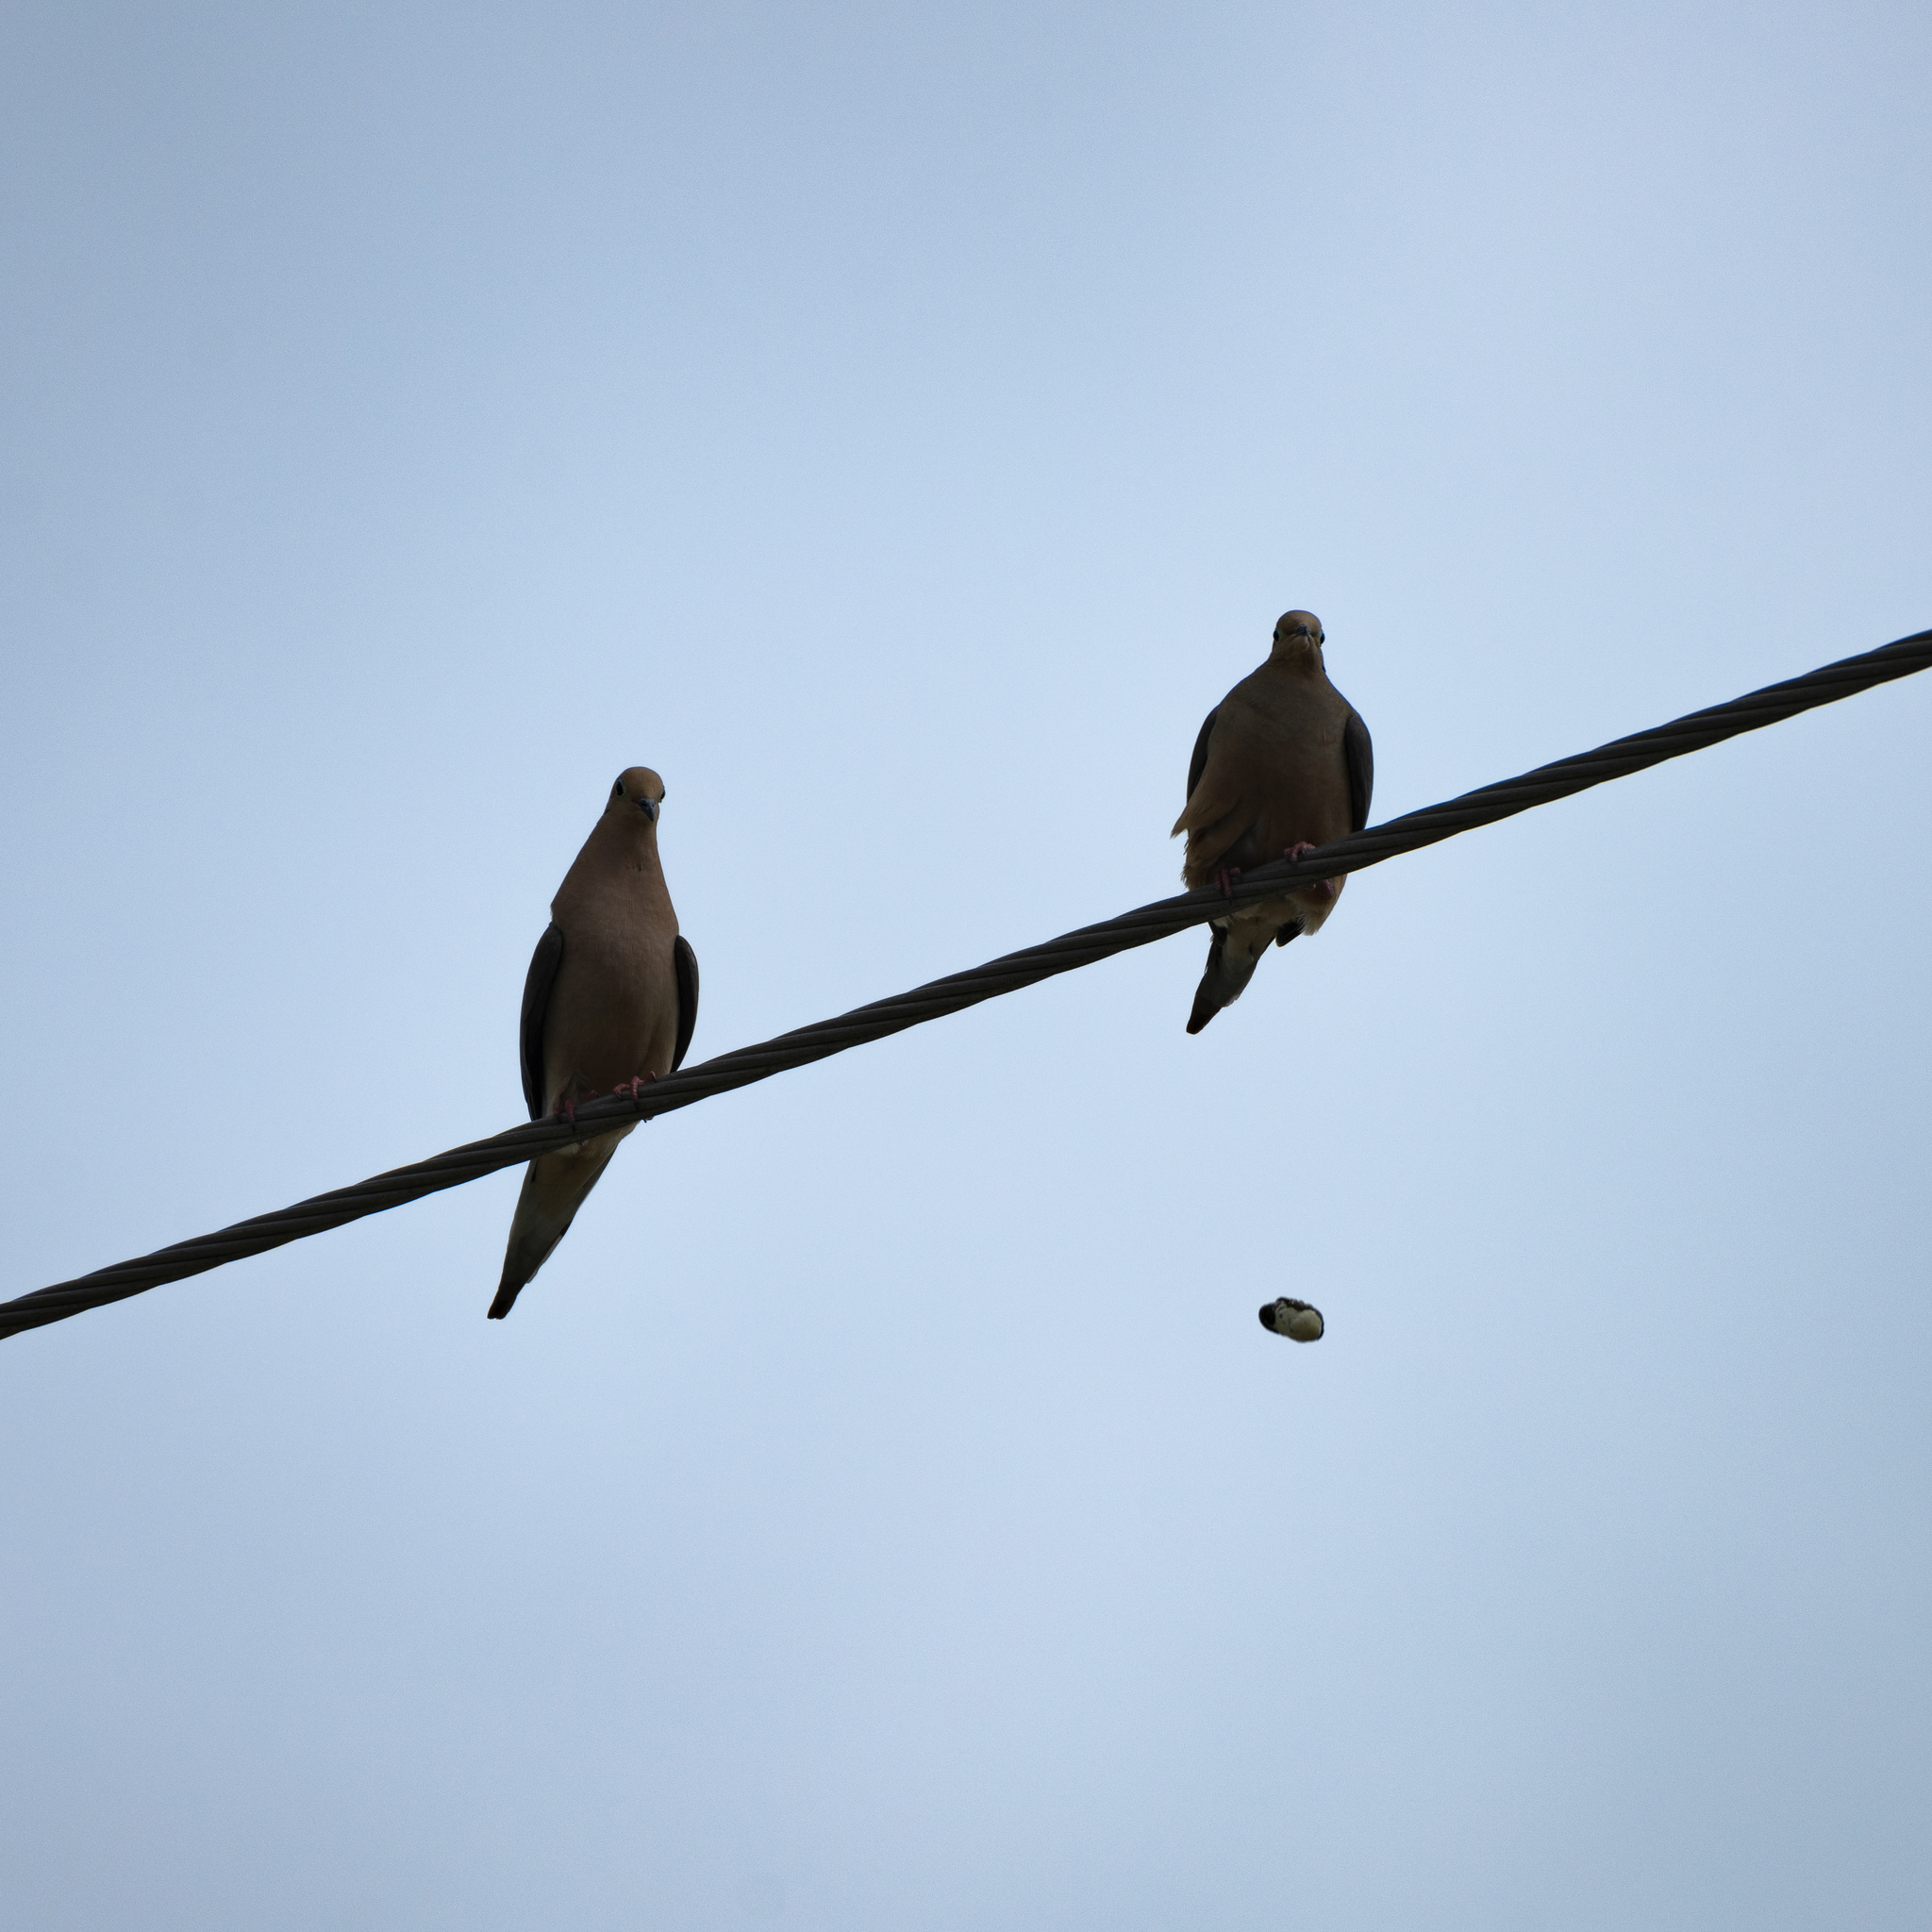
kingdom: Animalia
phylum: Chordata
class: Aves
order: Columbiformes
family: Columbidae
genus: Zenaida
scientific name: Zenaida macroura
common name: Mourning dove
